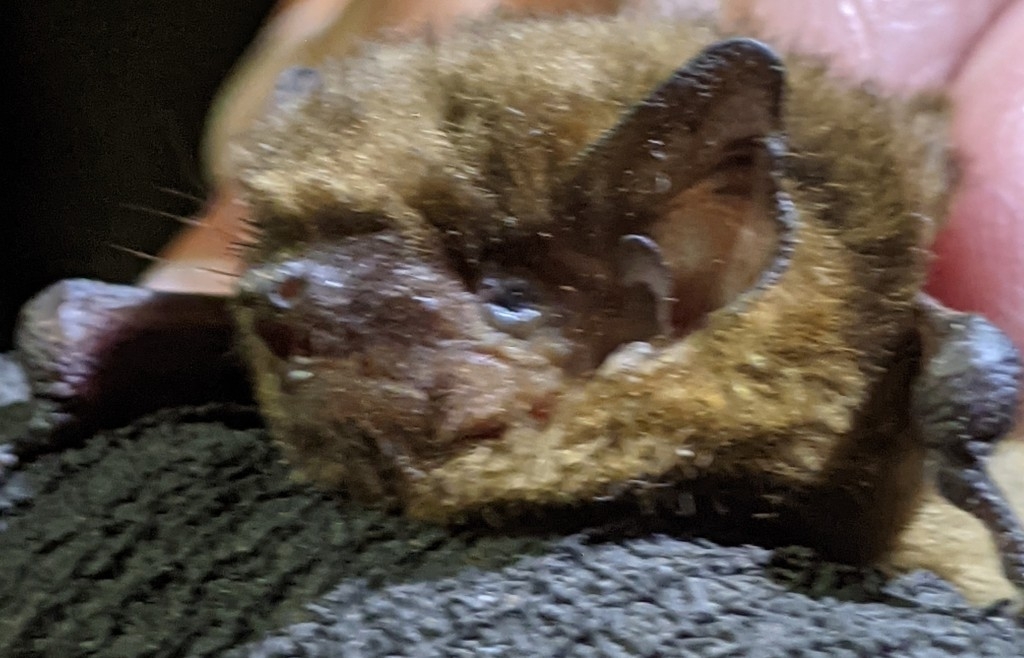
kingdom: Animalia
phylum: Chordata
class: Mammalia
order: Chiroptera
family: Vespertilionidae
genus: Pipistrellus
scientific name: Pipistrellus pygmaeus
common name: Soprano pipistrelle
